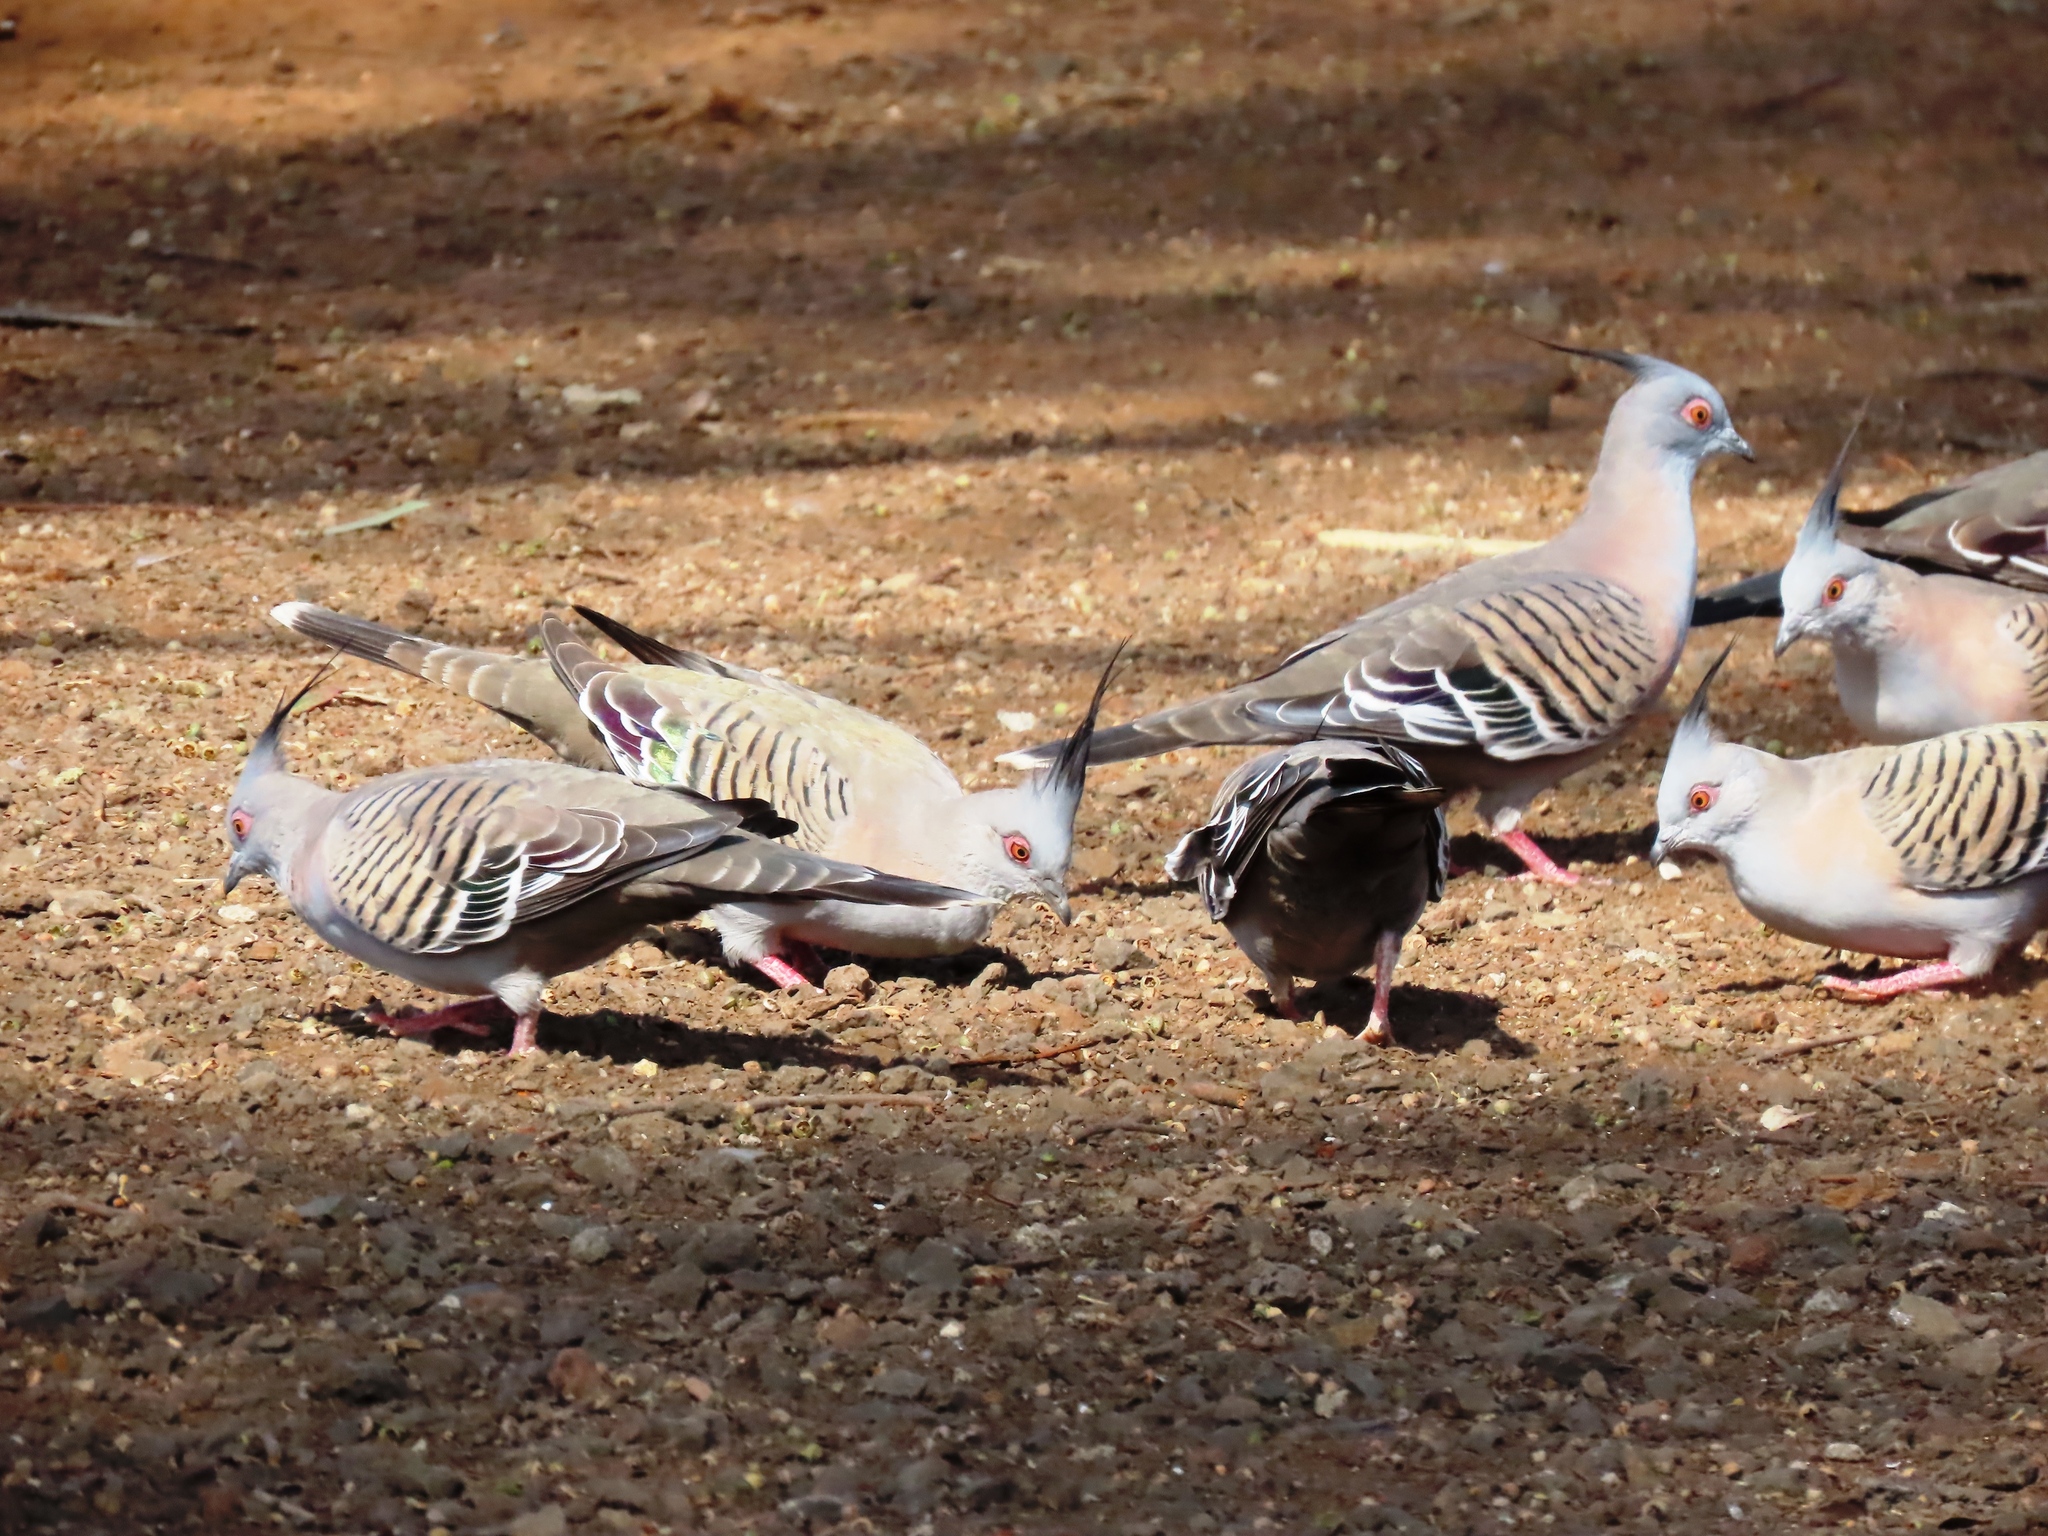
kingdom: Animalia
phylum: Chordata
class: Aves
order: Columbiformes
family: Columbidae
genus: Ocyphaps
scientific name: Ocyphaps lophotes
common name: Crested pigeon
